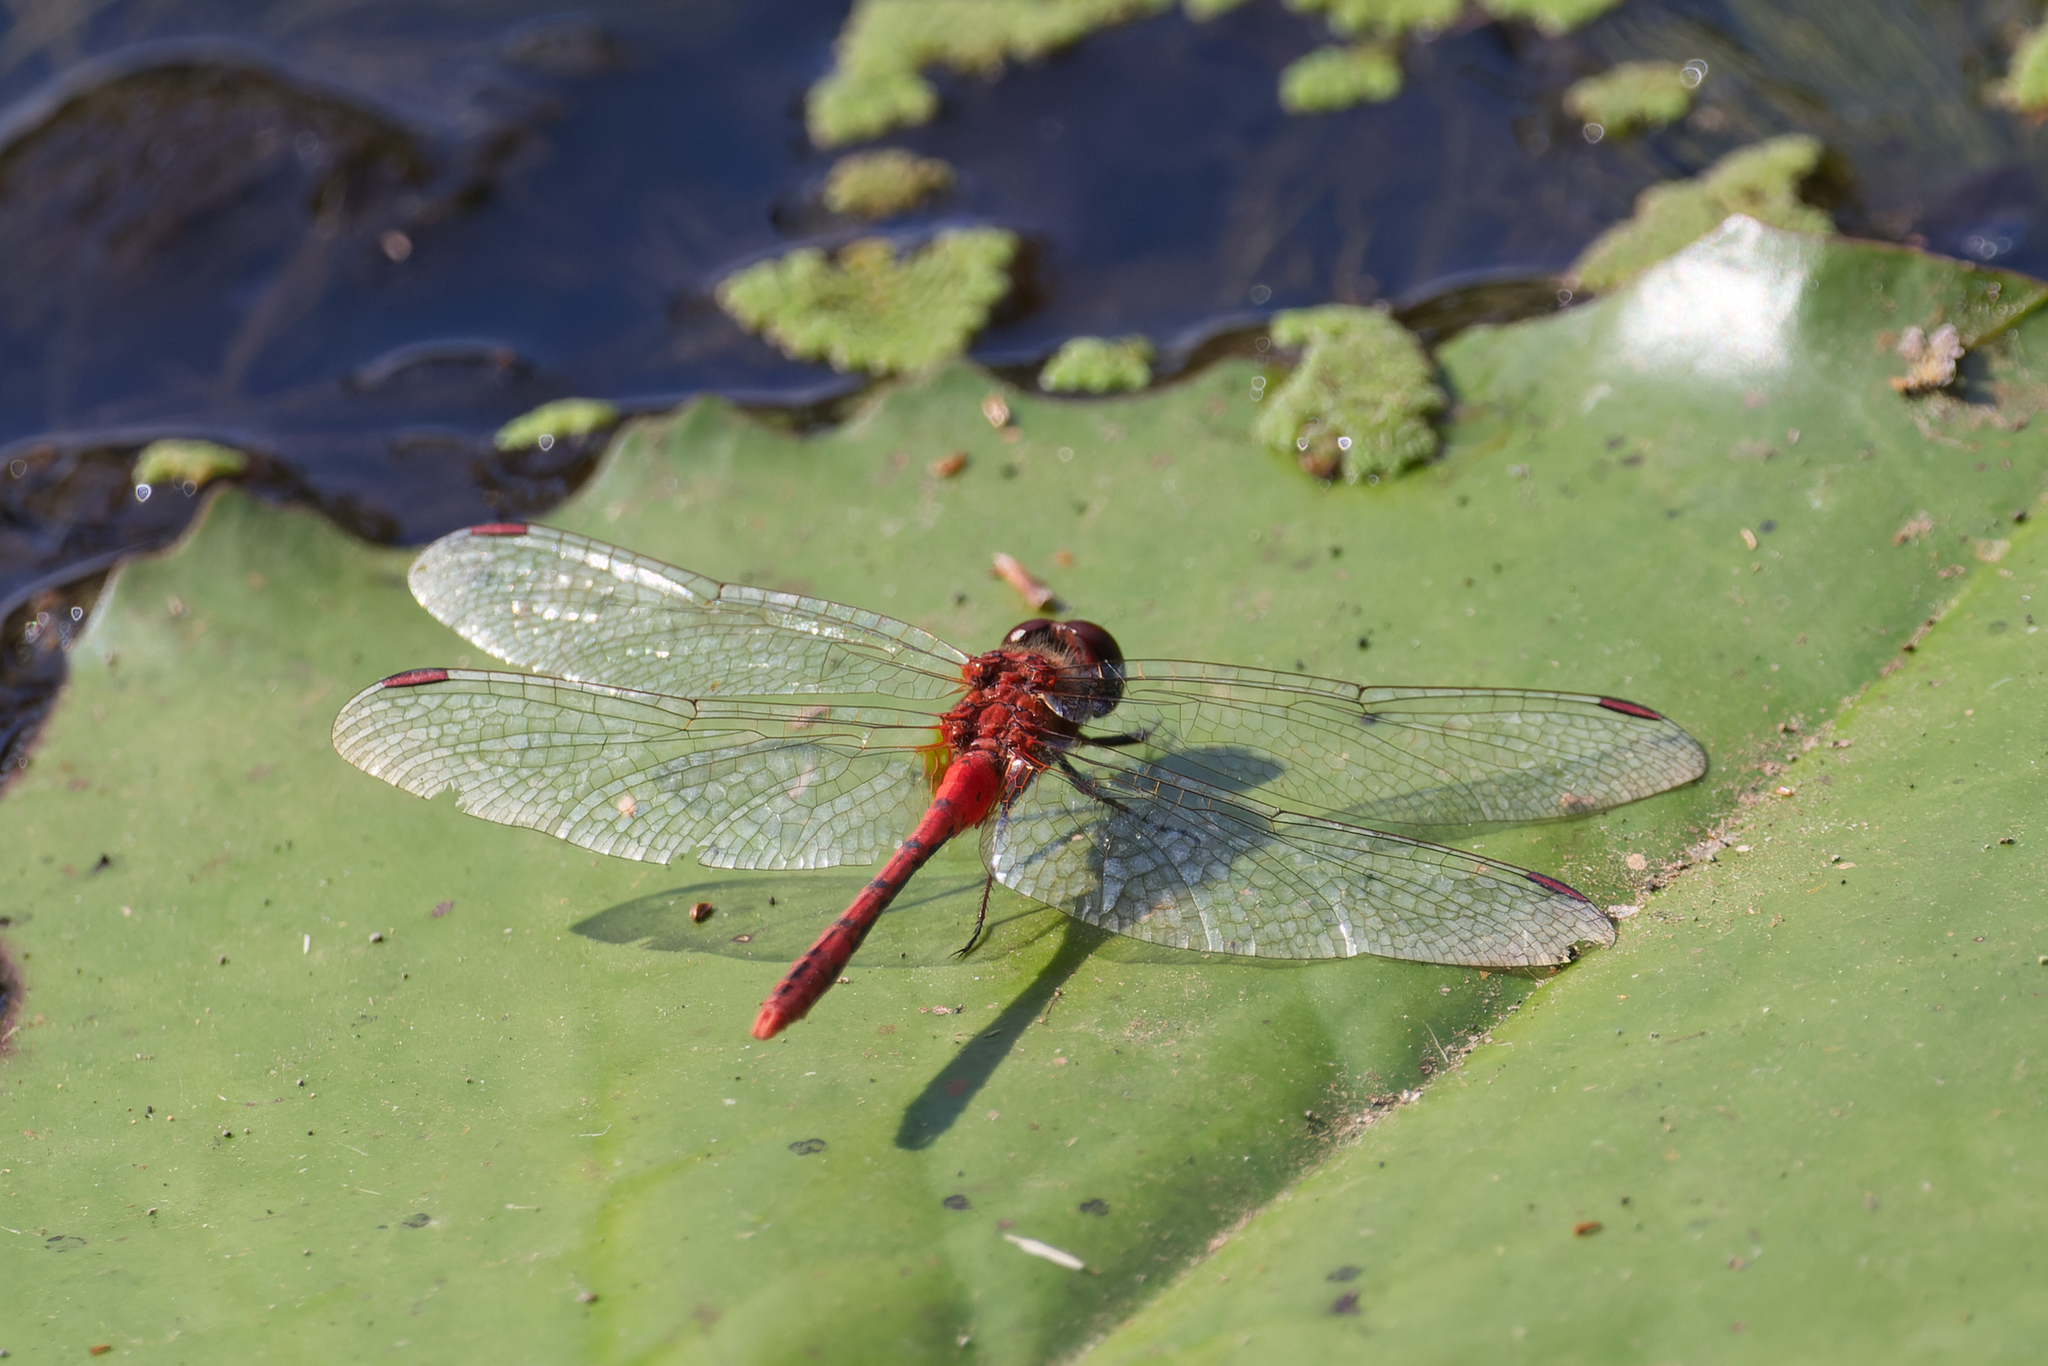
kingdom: Animalia
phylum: Arthropoda
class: Insecta
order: Odonata
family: Libellulidae
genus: Diplacodes
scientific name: Diplacodes bipunctata
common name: Red percher dragonfly
